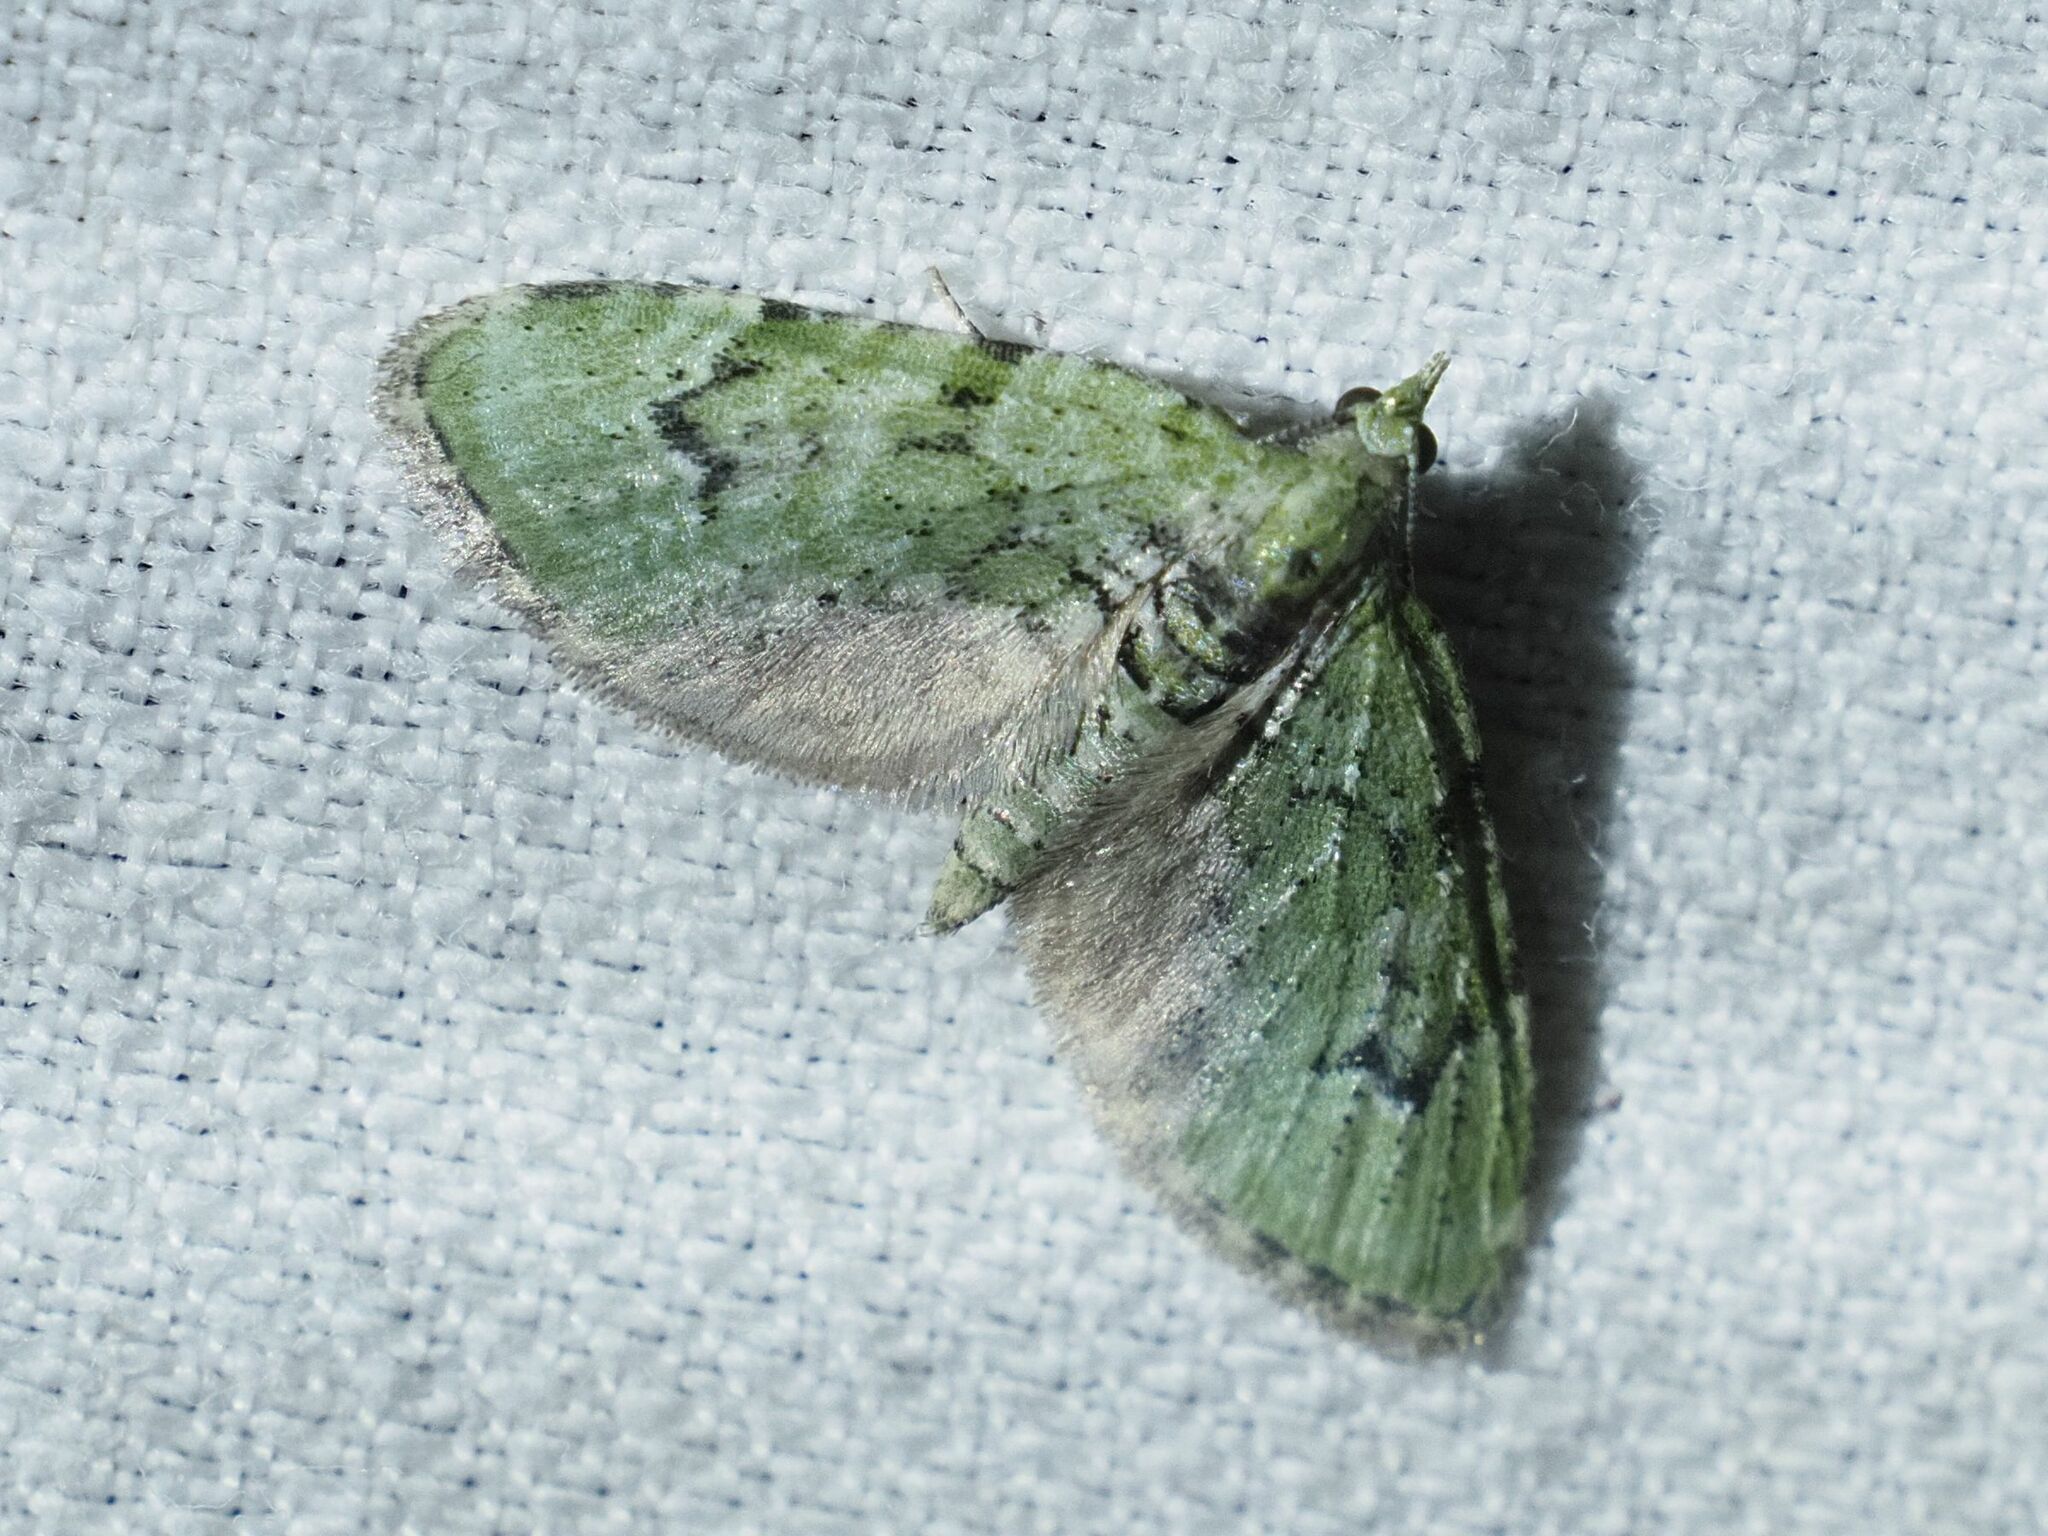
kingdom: Animalia
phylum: Arthropoda
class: Insecta
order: Lepidoptera
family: Geometridae
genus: Chloroclystis
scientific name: Chloroclystis v-ata
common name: V-pug
